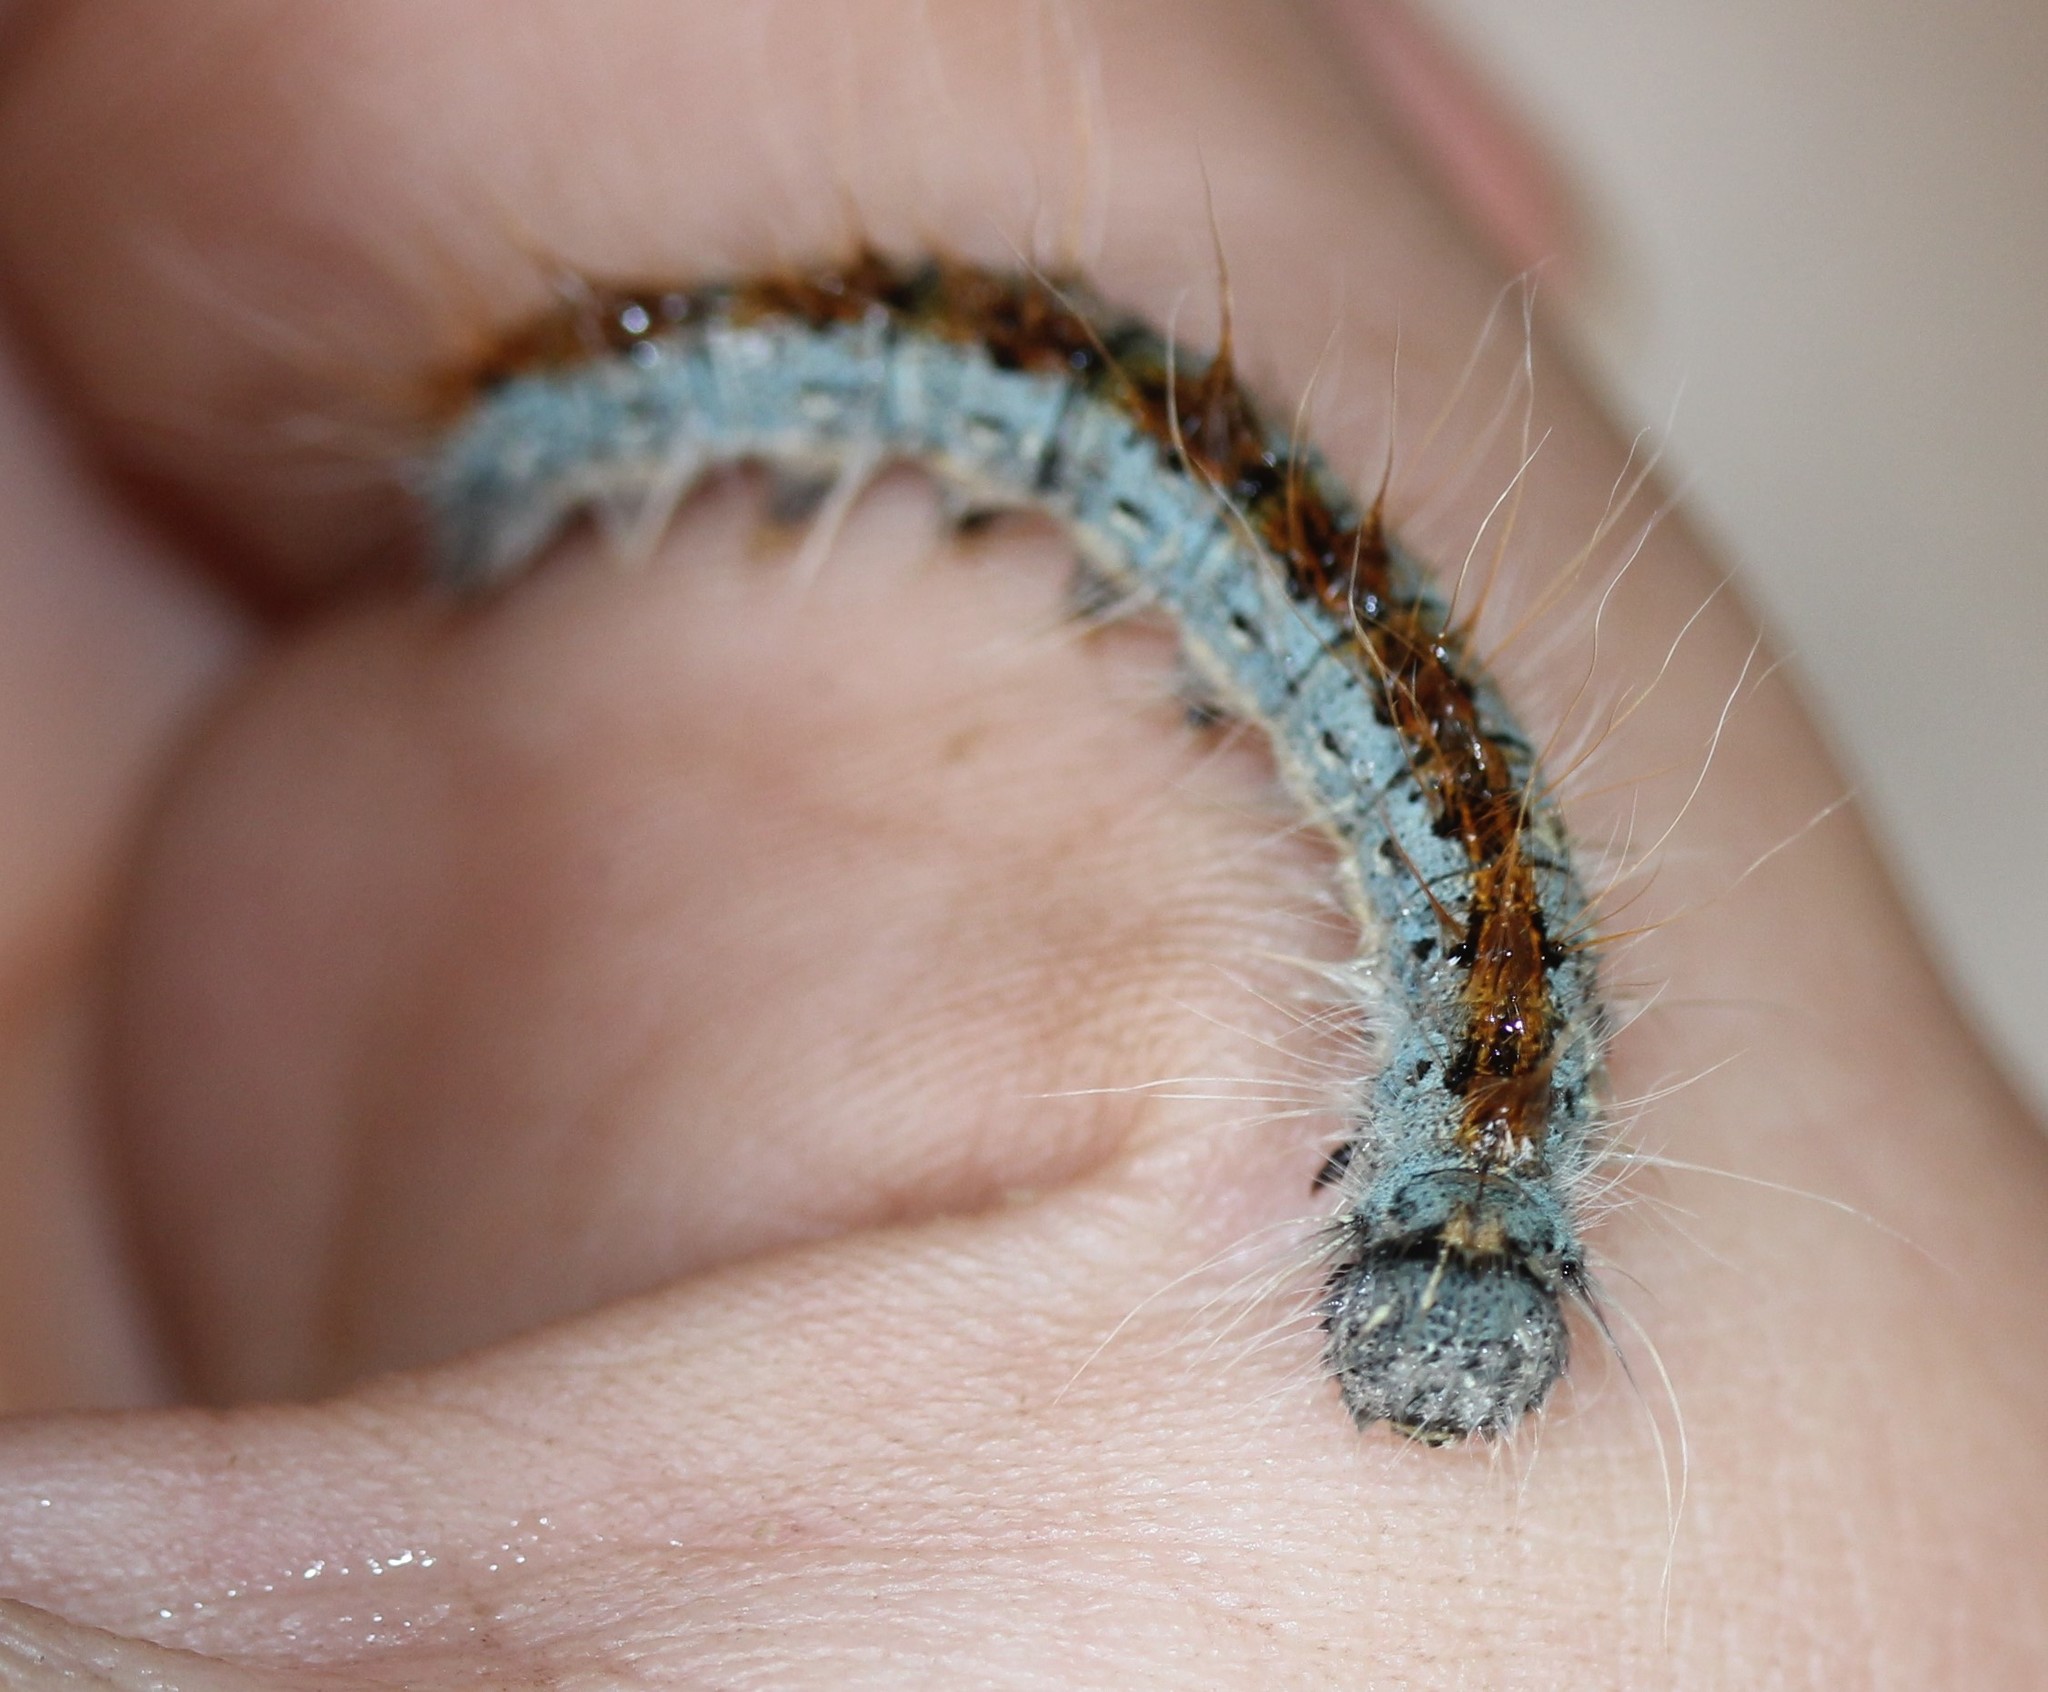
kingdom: Animalia
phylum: Arthropoda
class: Insecta
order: Lepidoptera
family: Lasiocampidae
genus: Malacosoma
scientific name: Malacosoma incurva
